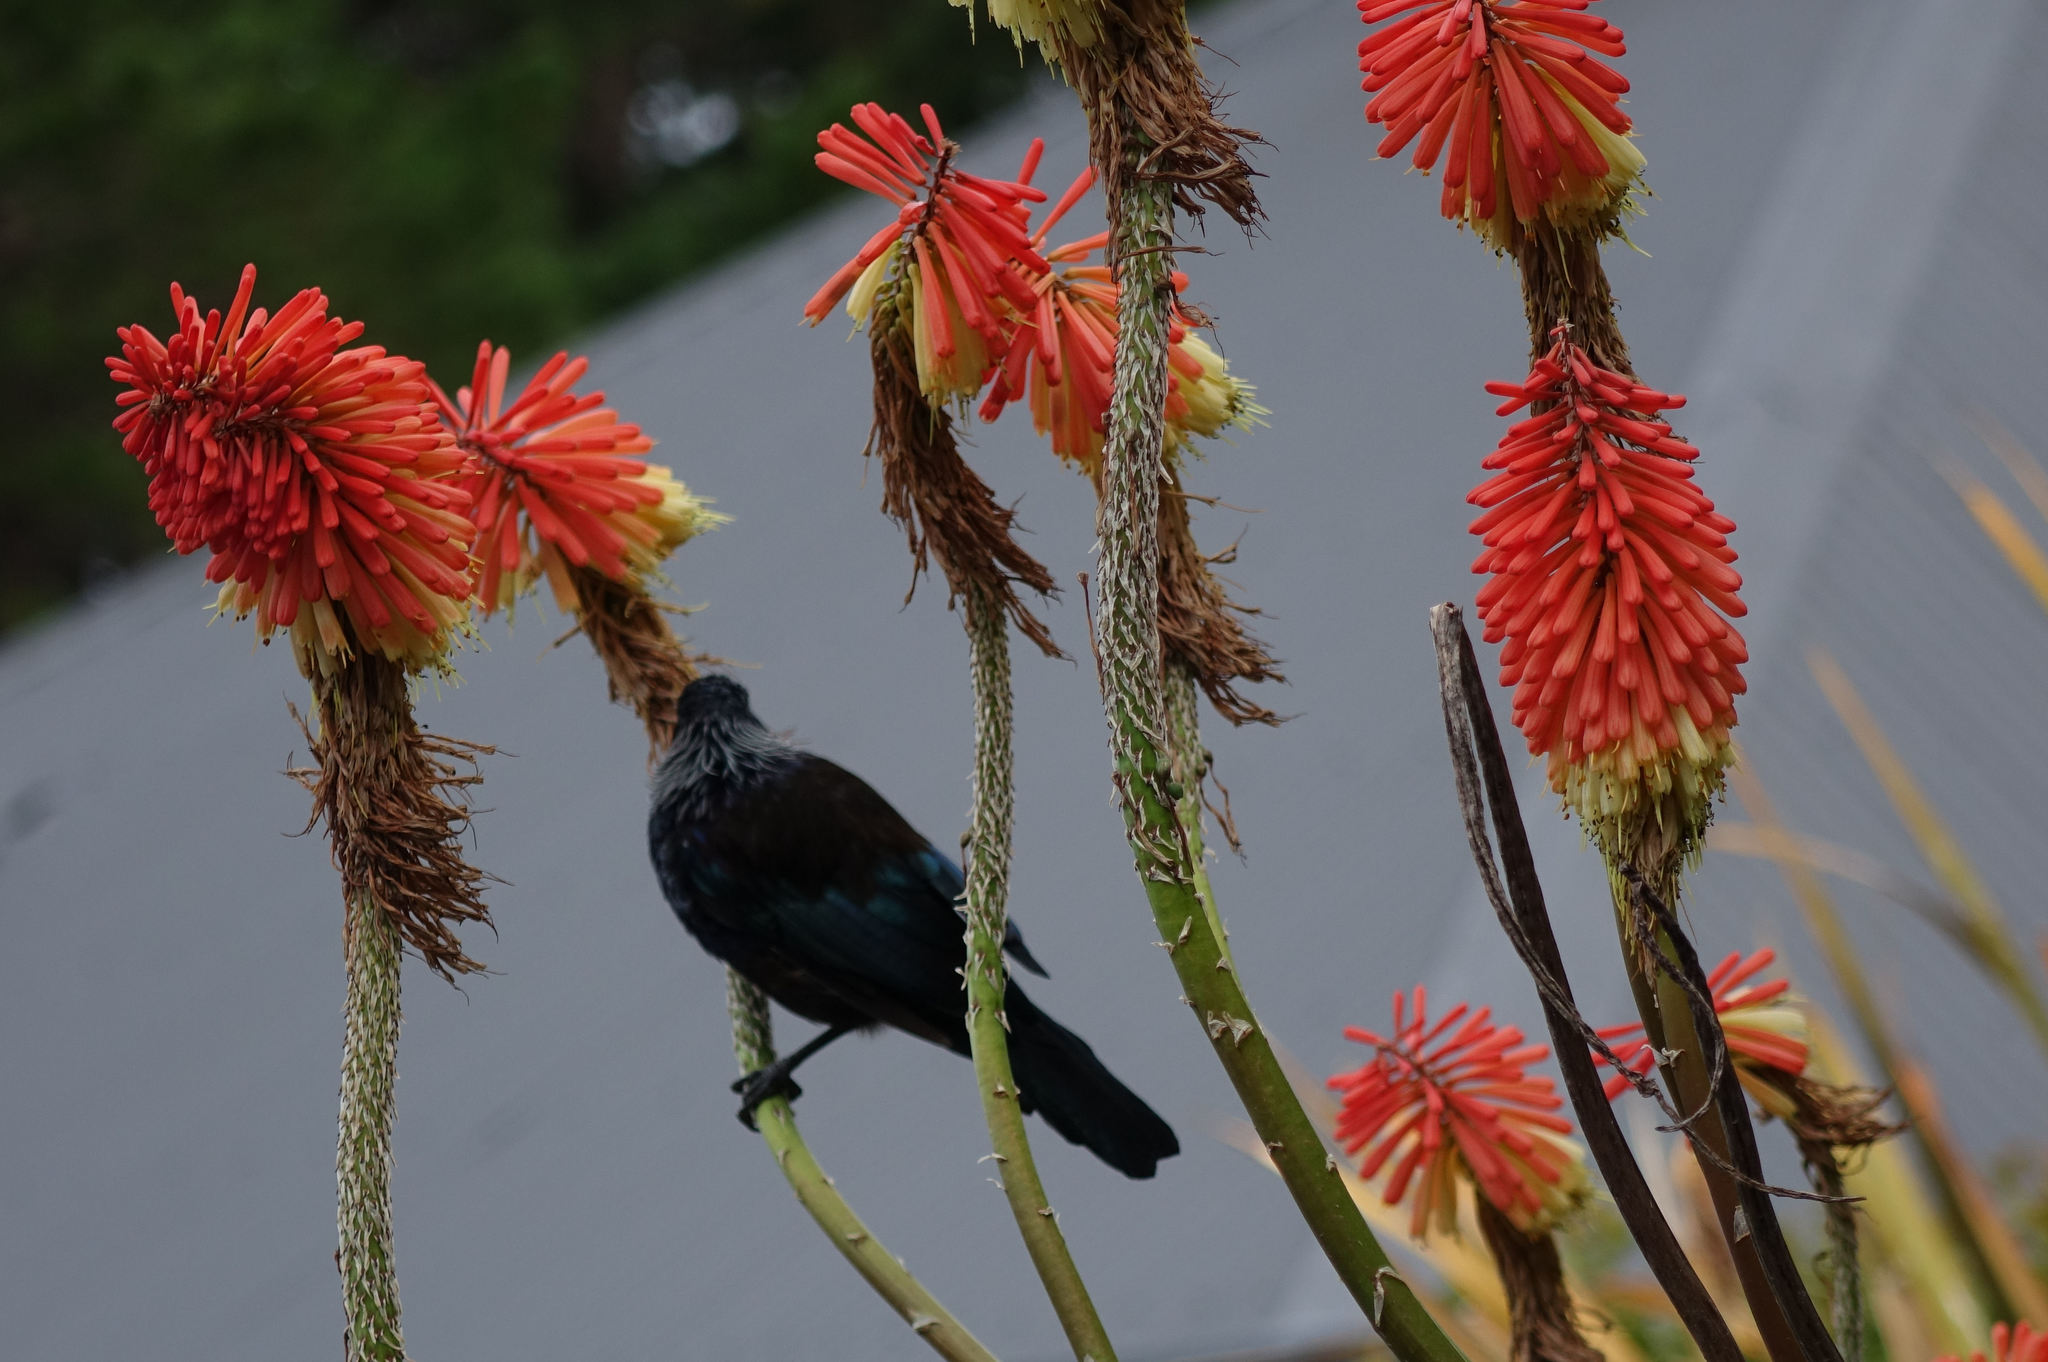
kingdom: Animalia
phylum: Chordata
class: Aves
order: Passeriformes
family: Meliphagidae
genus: Prosthemadera
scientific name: Prosthemadera novaeseelandiae
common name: Tui
